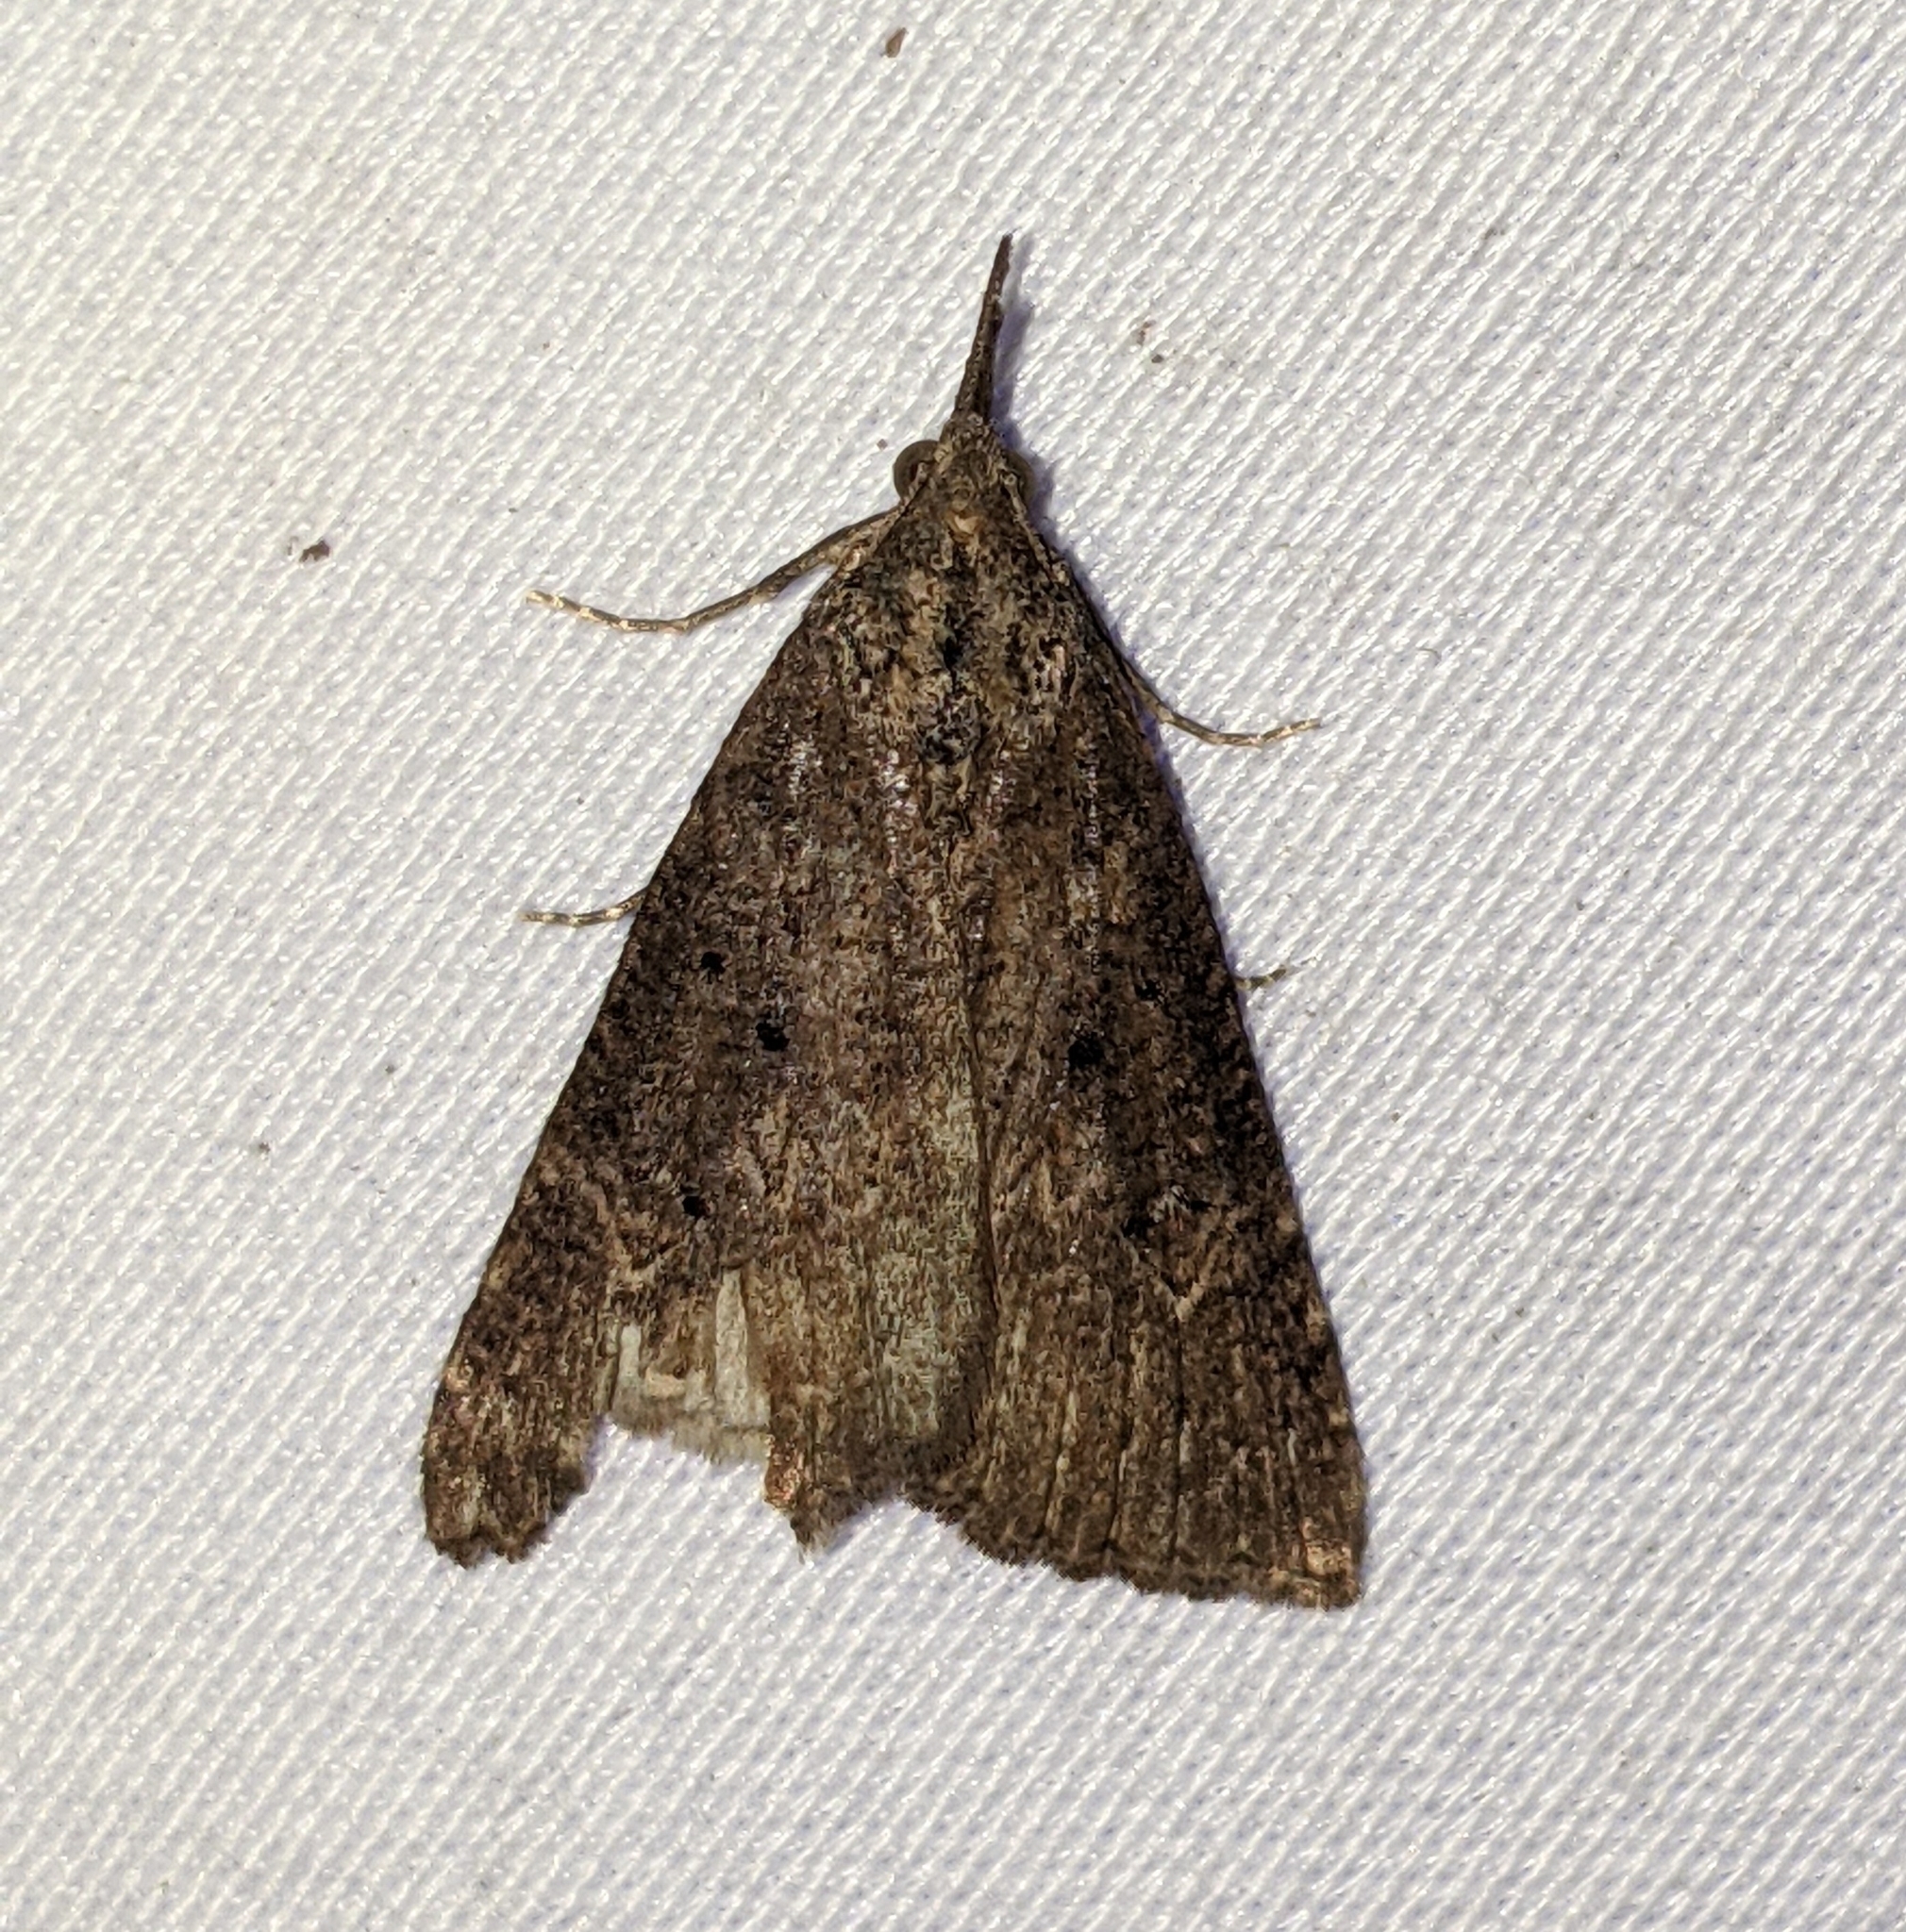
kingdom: Animalia
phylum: Arthropoda
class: Insecta
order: Lepidoptera
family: Erebidae
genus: Hypena
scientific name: Hypena humuli
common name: Hop vine snout
